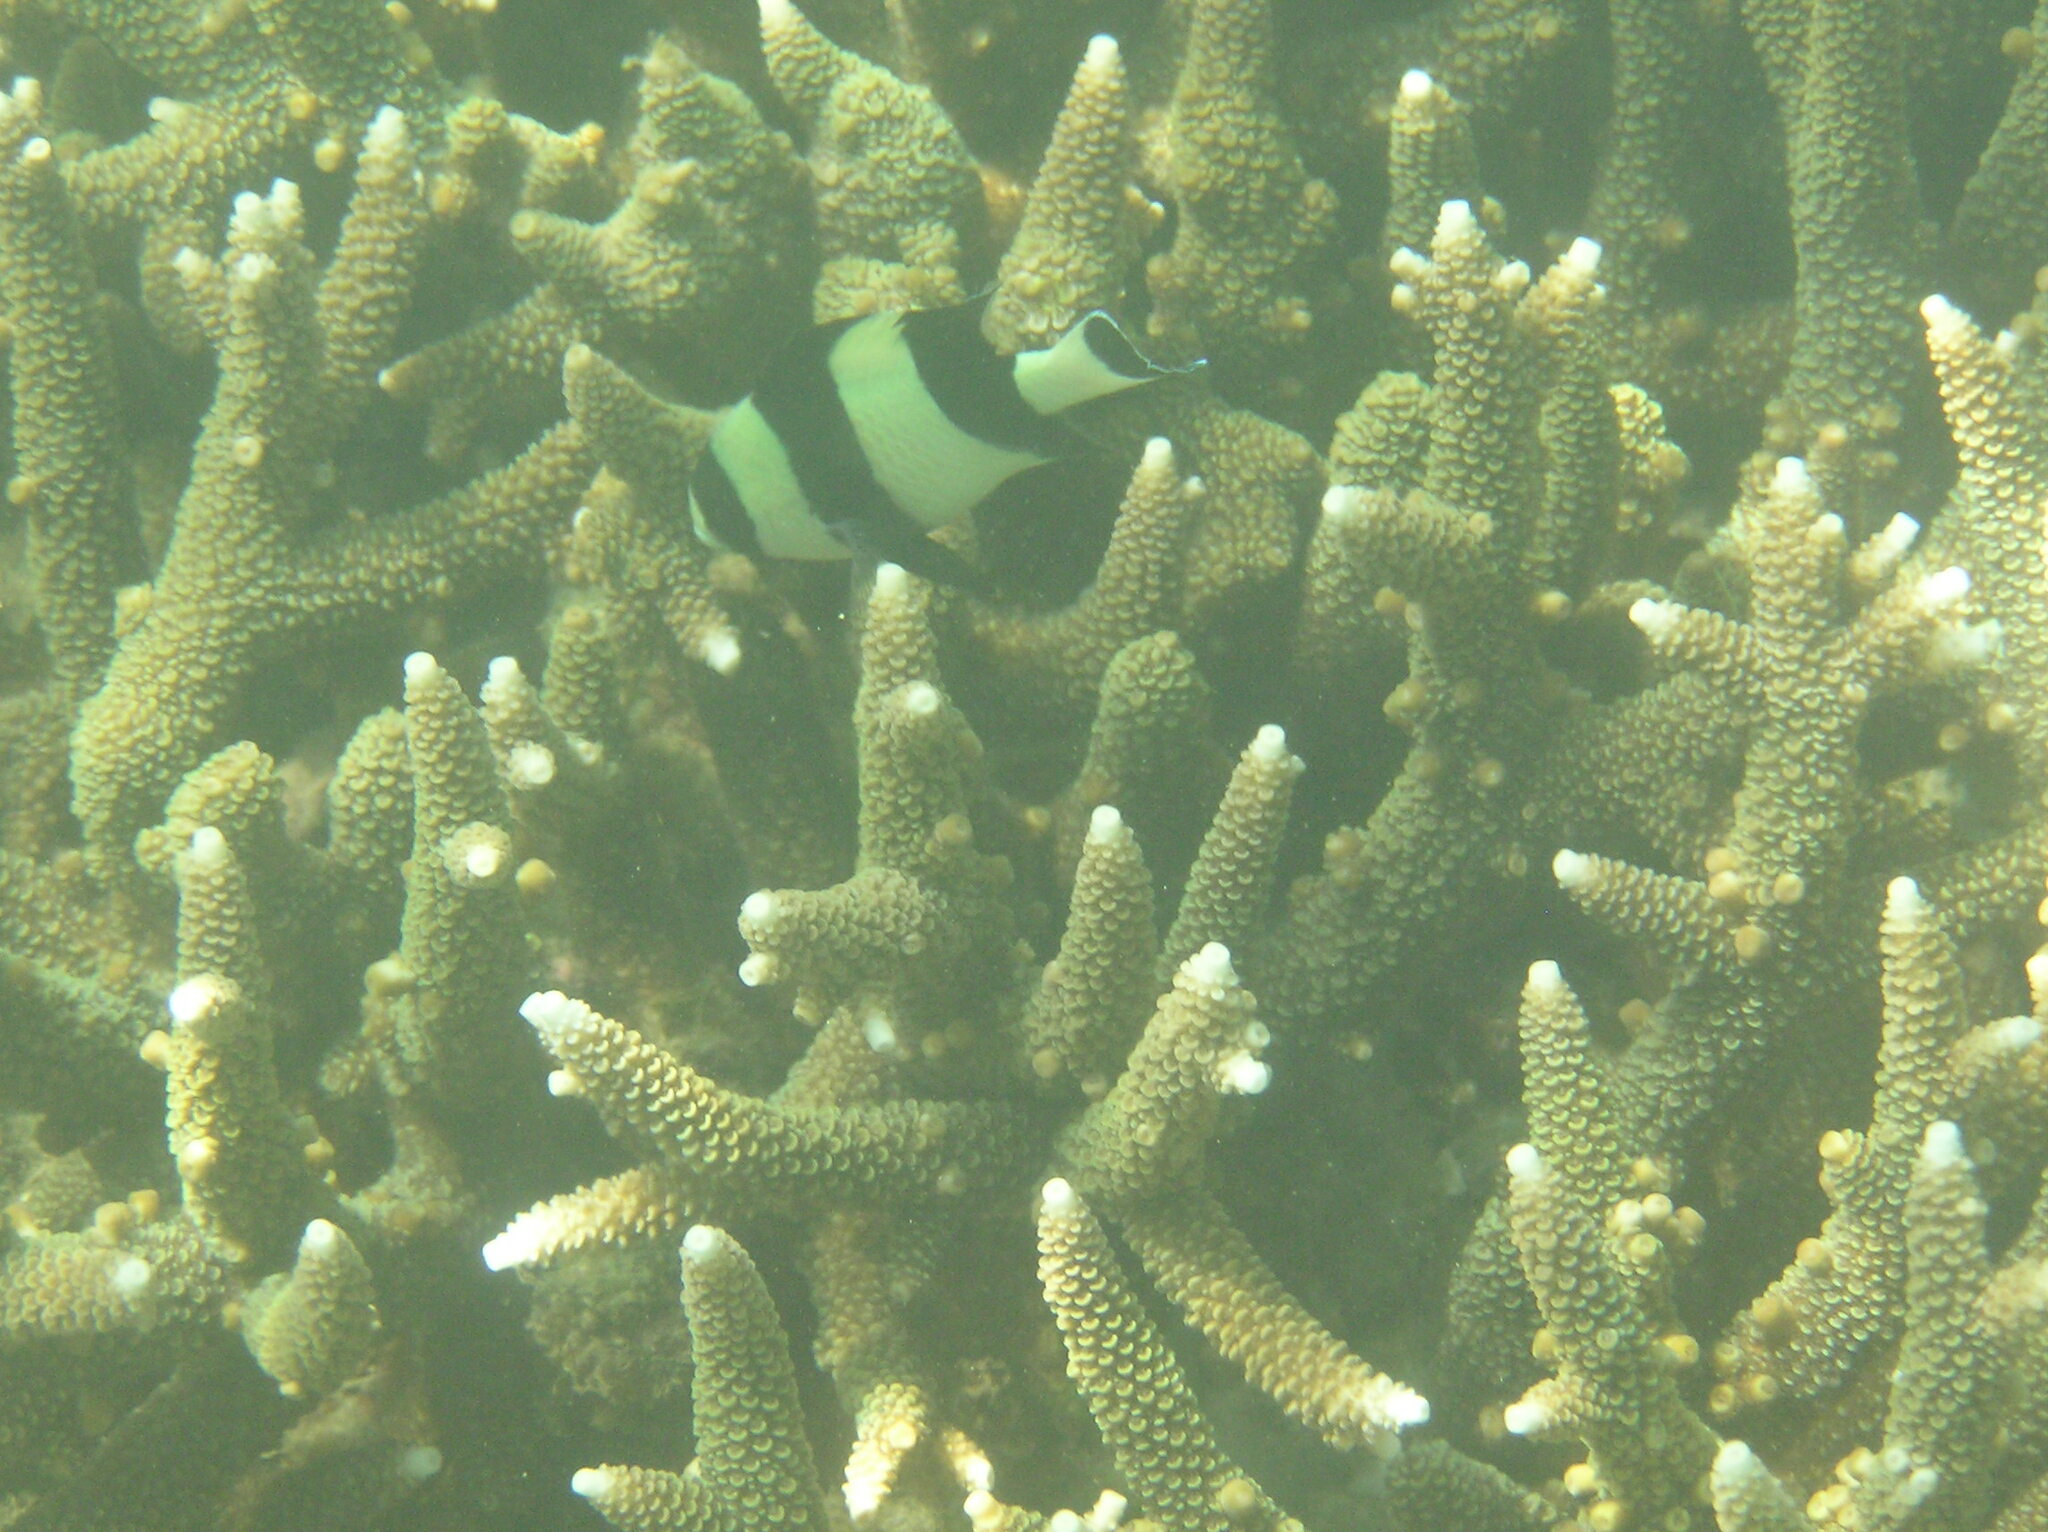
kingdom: Animalia
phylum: Chordata
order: Perciformes
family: Pomacentridae
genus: Dascyllus
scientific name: Dascyllus melanurus
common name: Black-tail dascyllus
